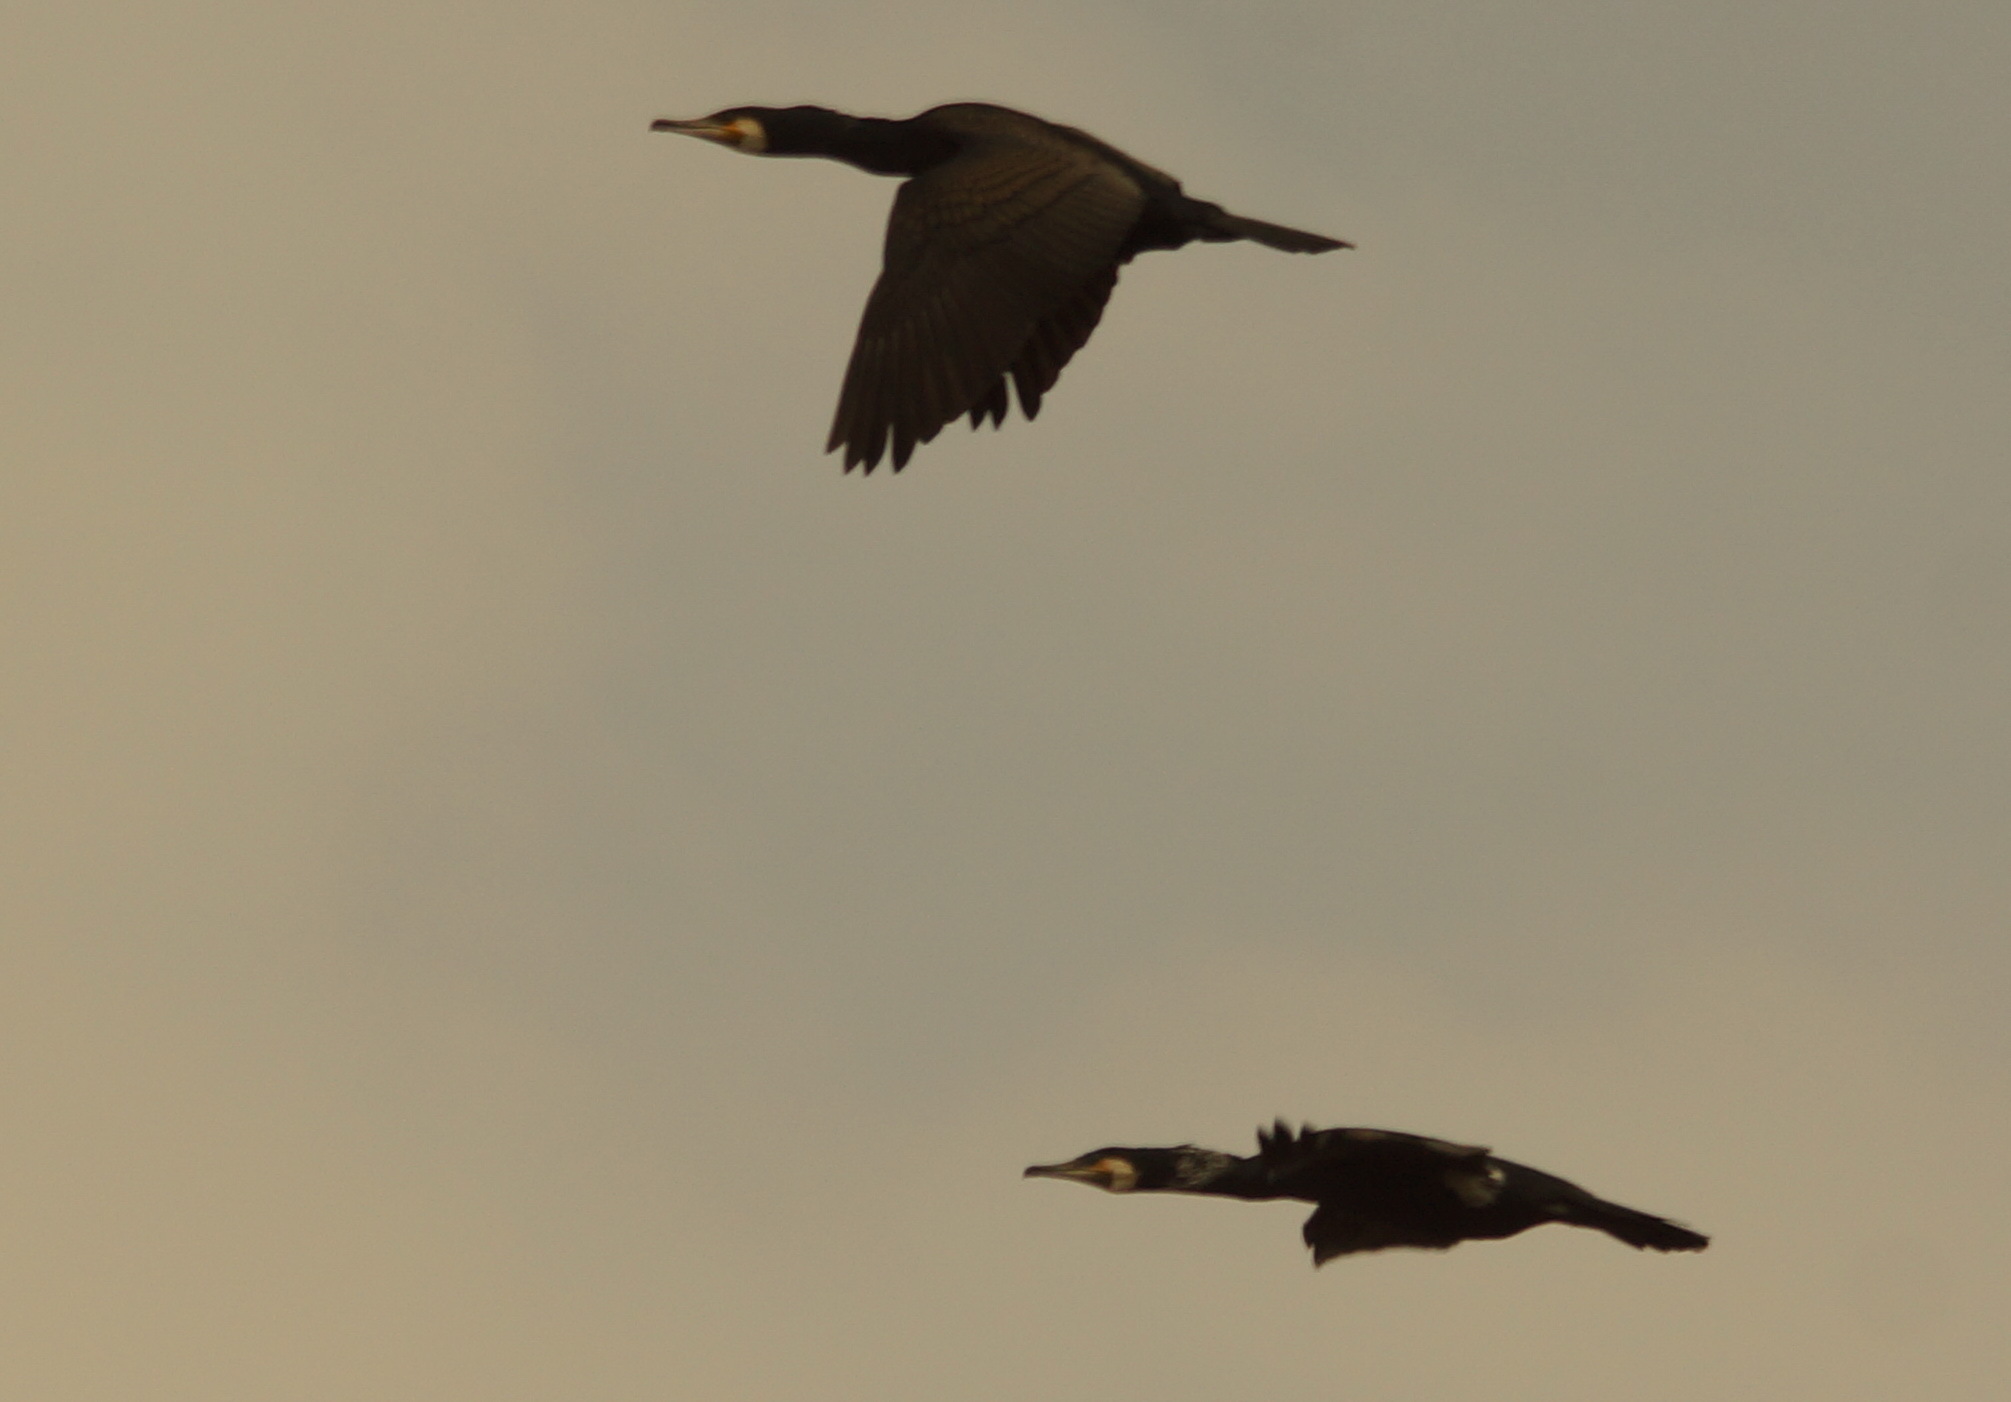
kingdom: Animalia
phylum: Chordata
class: Aves
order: Suliformes
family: Phalacrocoracidae
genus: Phalacrocorax
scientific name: Phalacrocorax carbo
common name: Great cormorant
